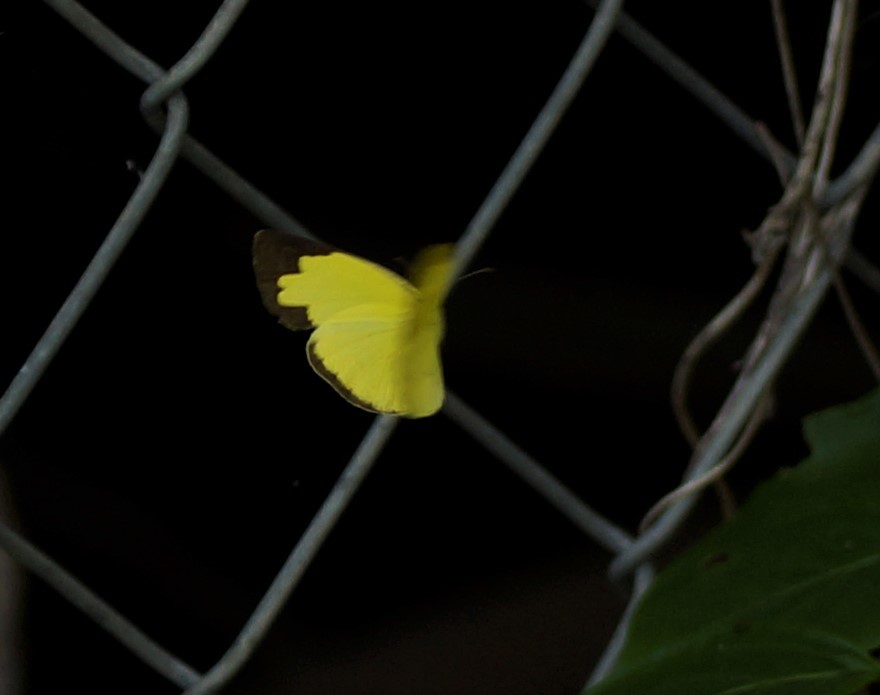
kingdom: Animalia
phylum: Arthropoda
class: Insecta
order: Lepidoptera
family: Pieridae
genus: Eurema
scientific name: Eurema hecabe
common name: Pale grass yellow
